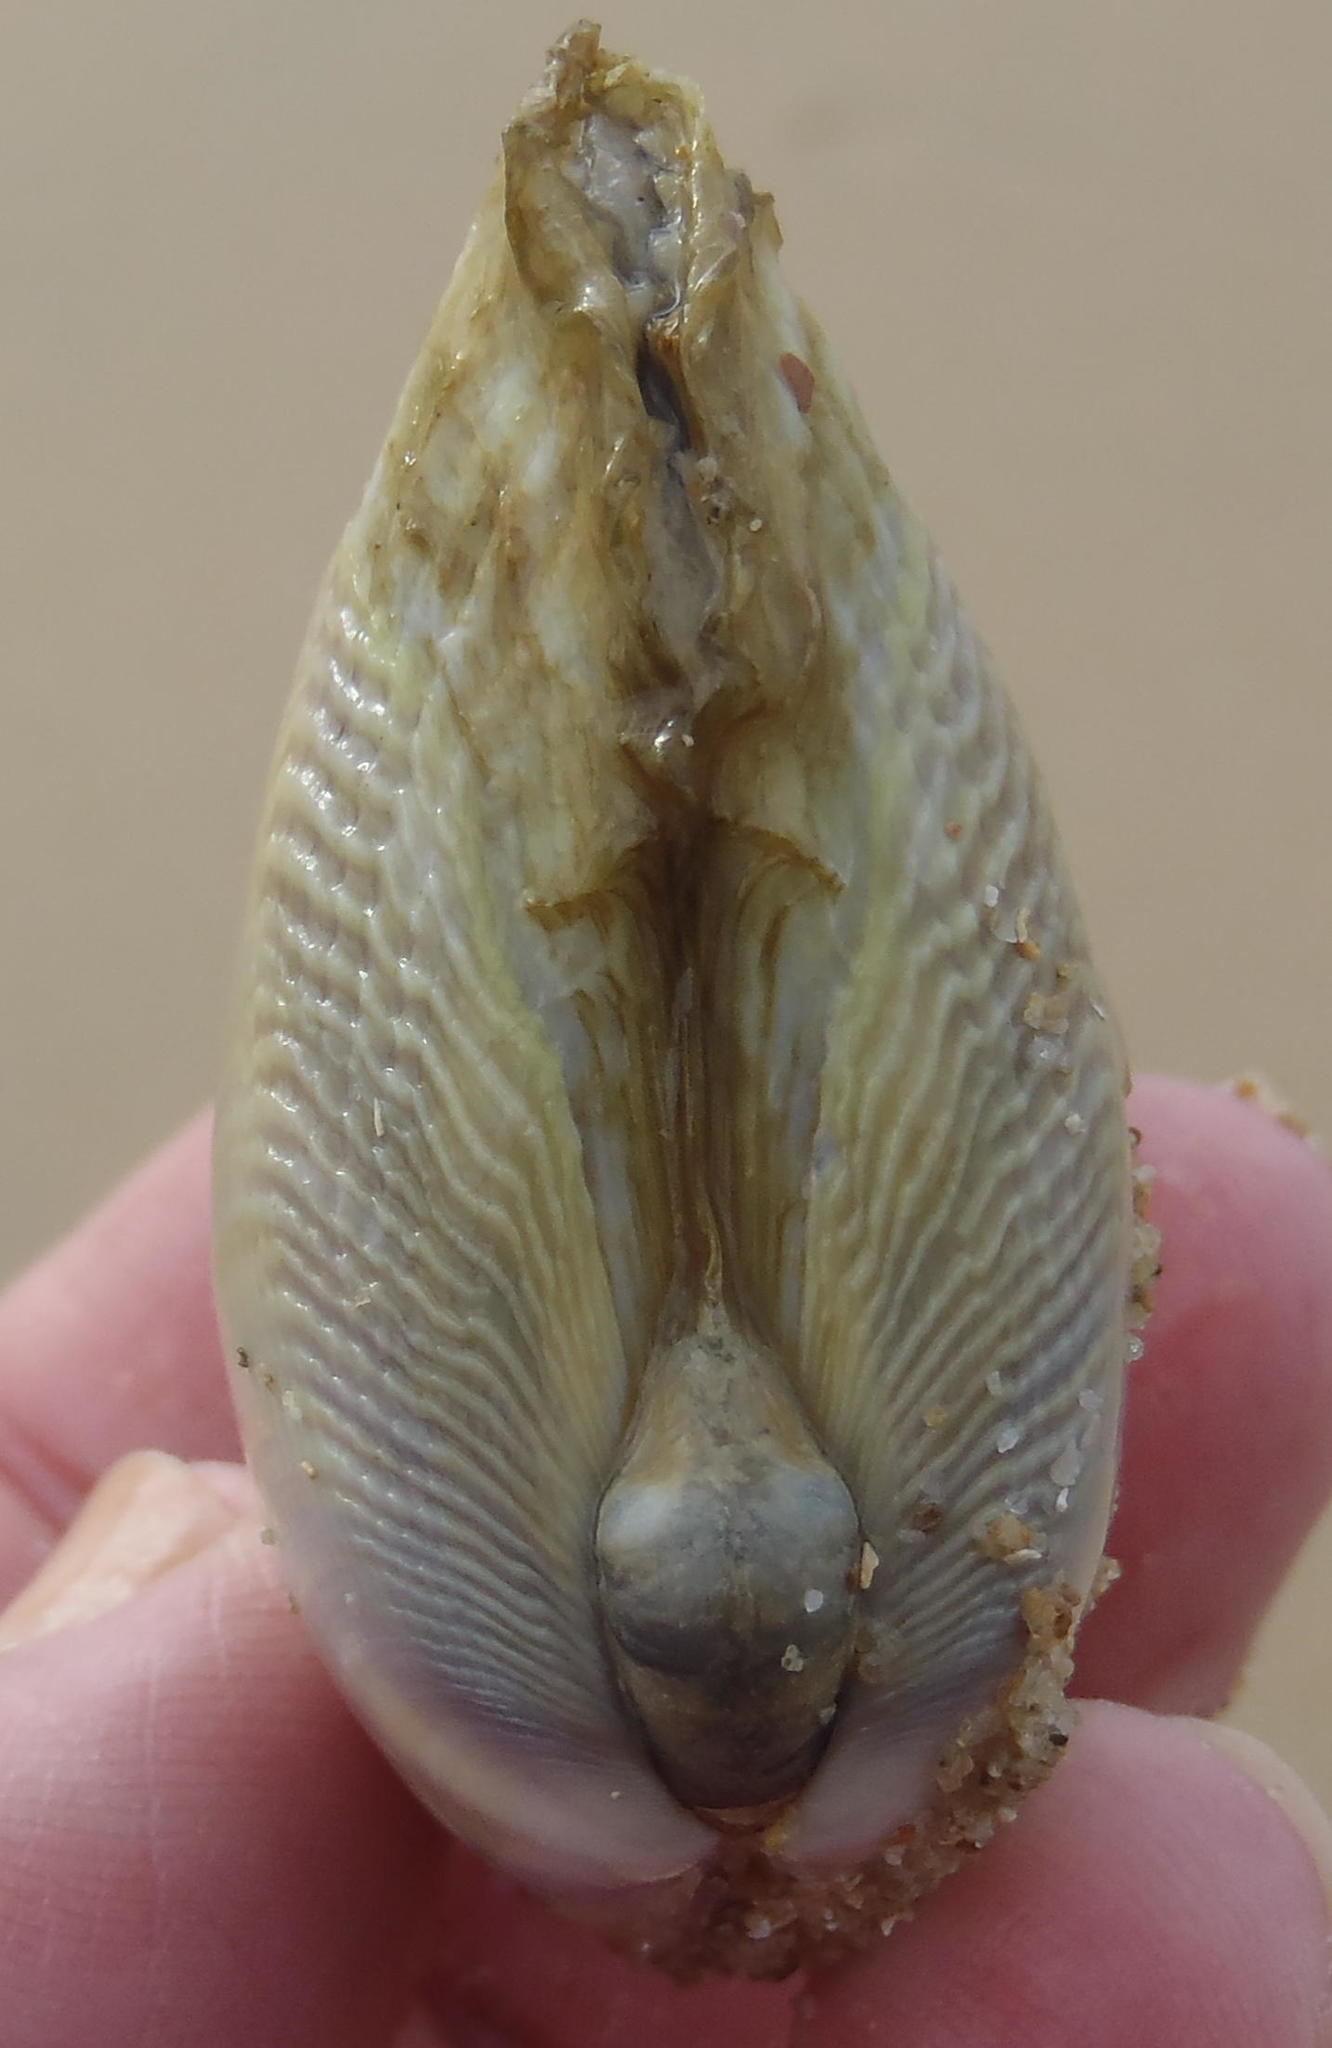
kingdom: Animalia
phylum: Mollusca
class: Bivalvia
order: Cardiida
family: Donacidae
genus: Donax
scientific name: Donax serra
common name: Giant south african wedge clam
